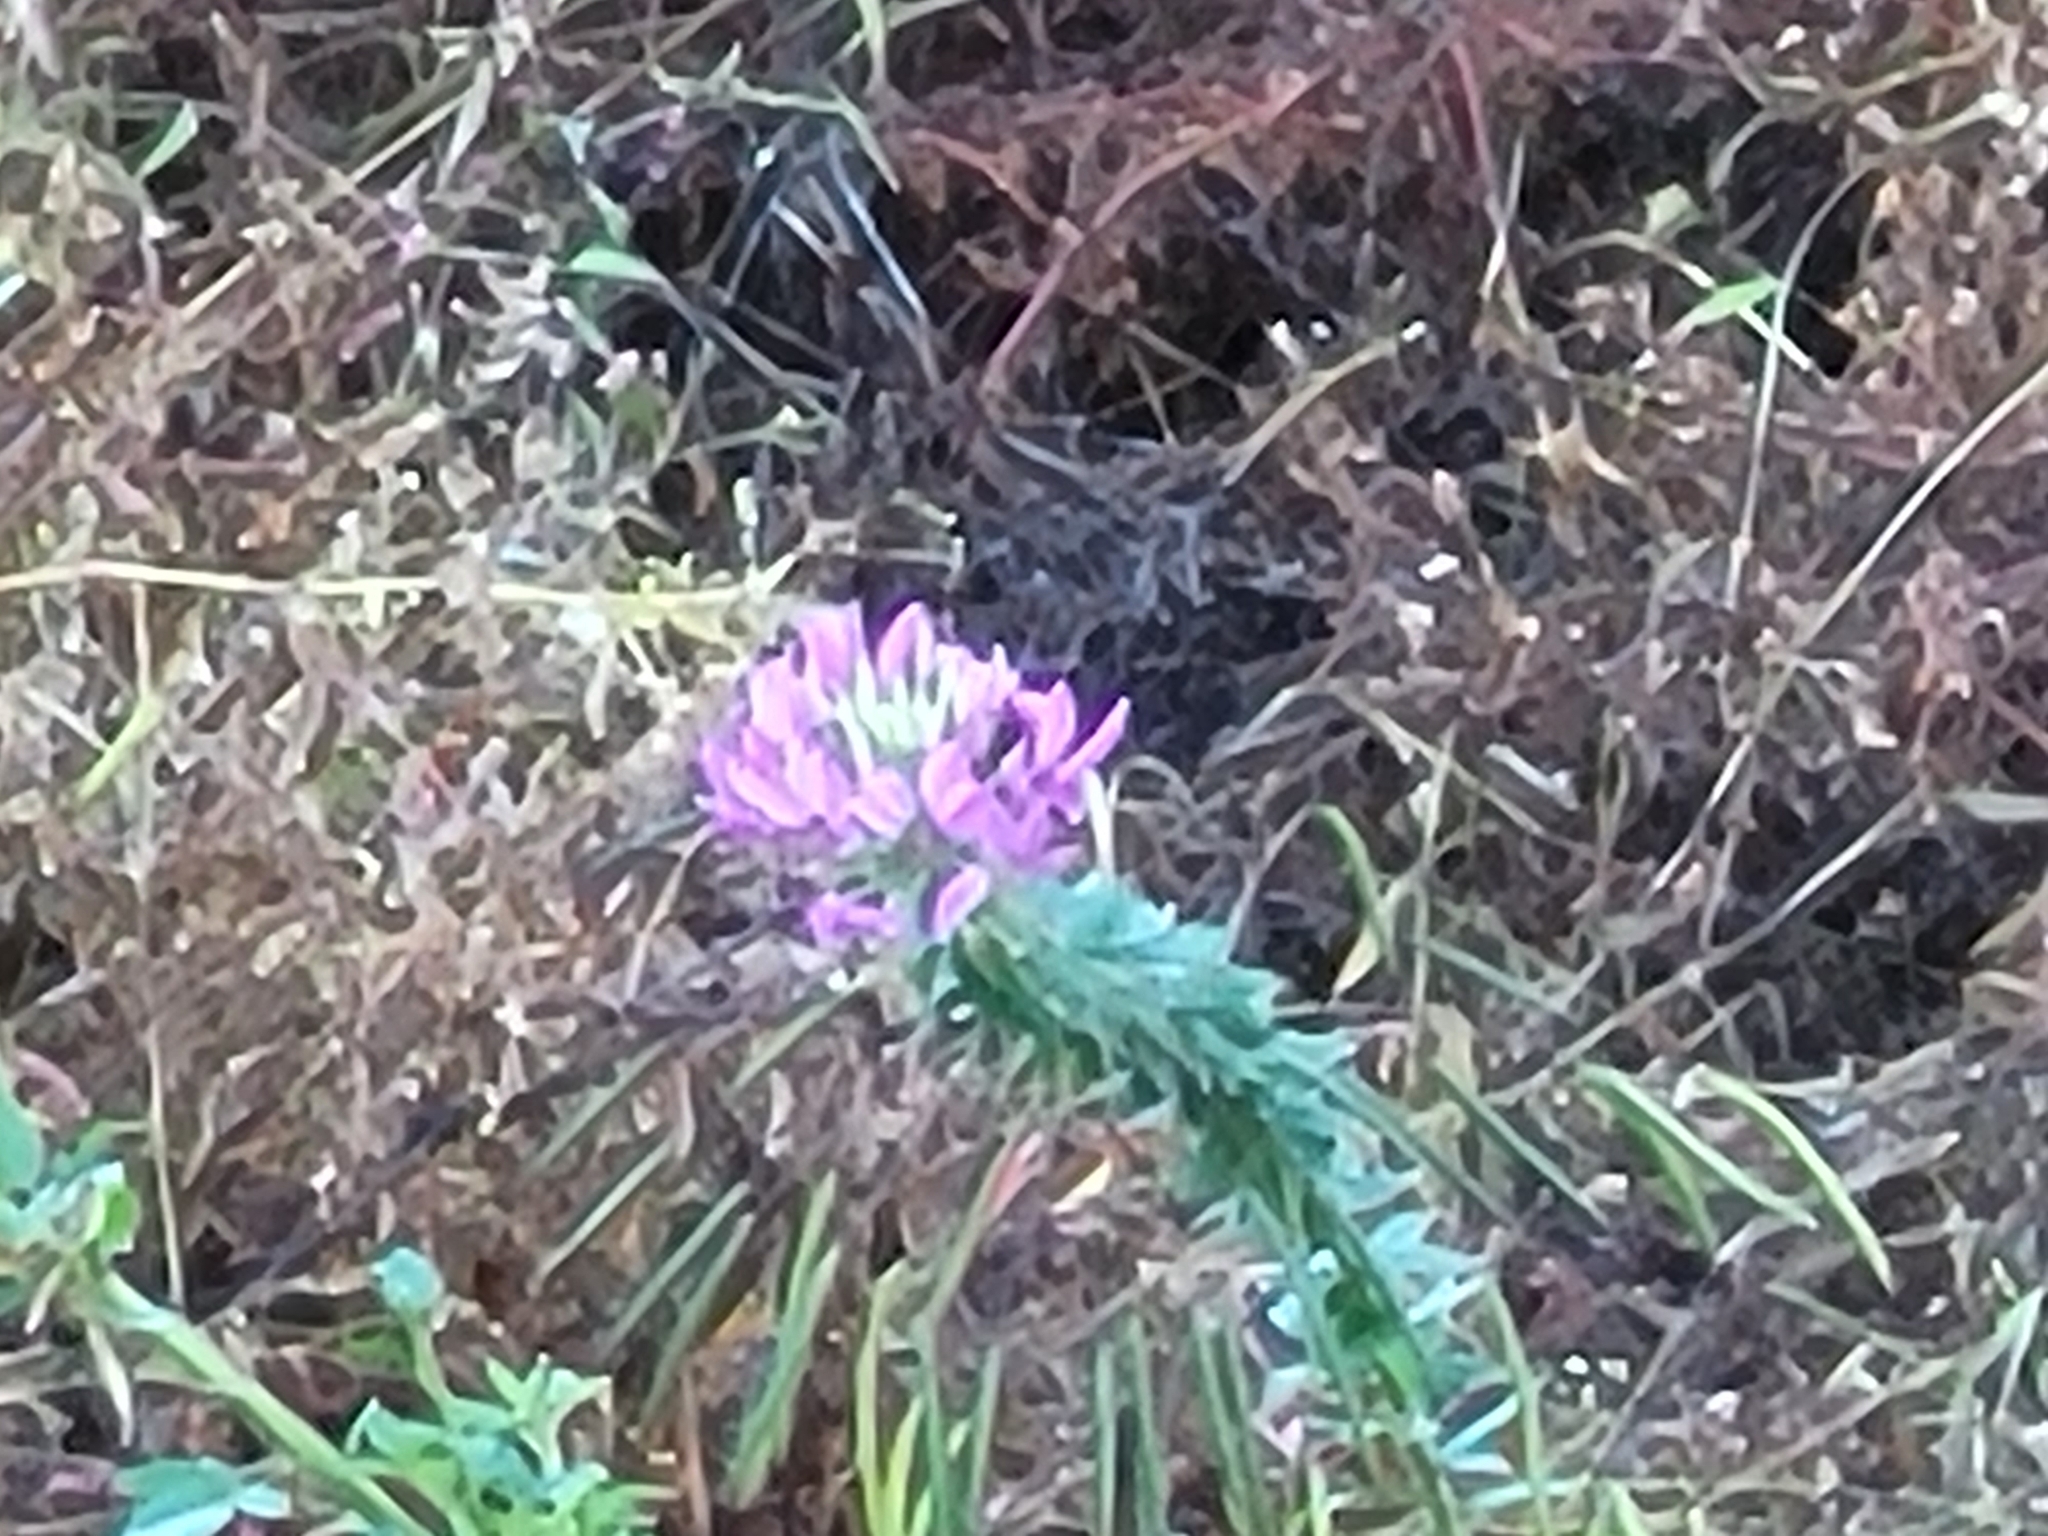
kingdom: Plantae
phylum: Tracheophyta
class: Magnoliopsida
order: Brassicales
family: Cleomaceae
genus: Tarenaya
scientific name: Tarenaya houtteana
